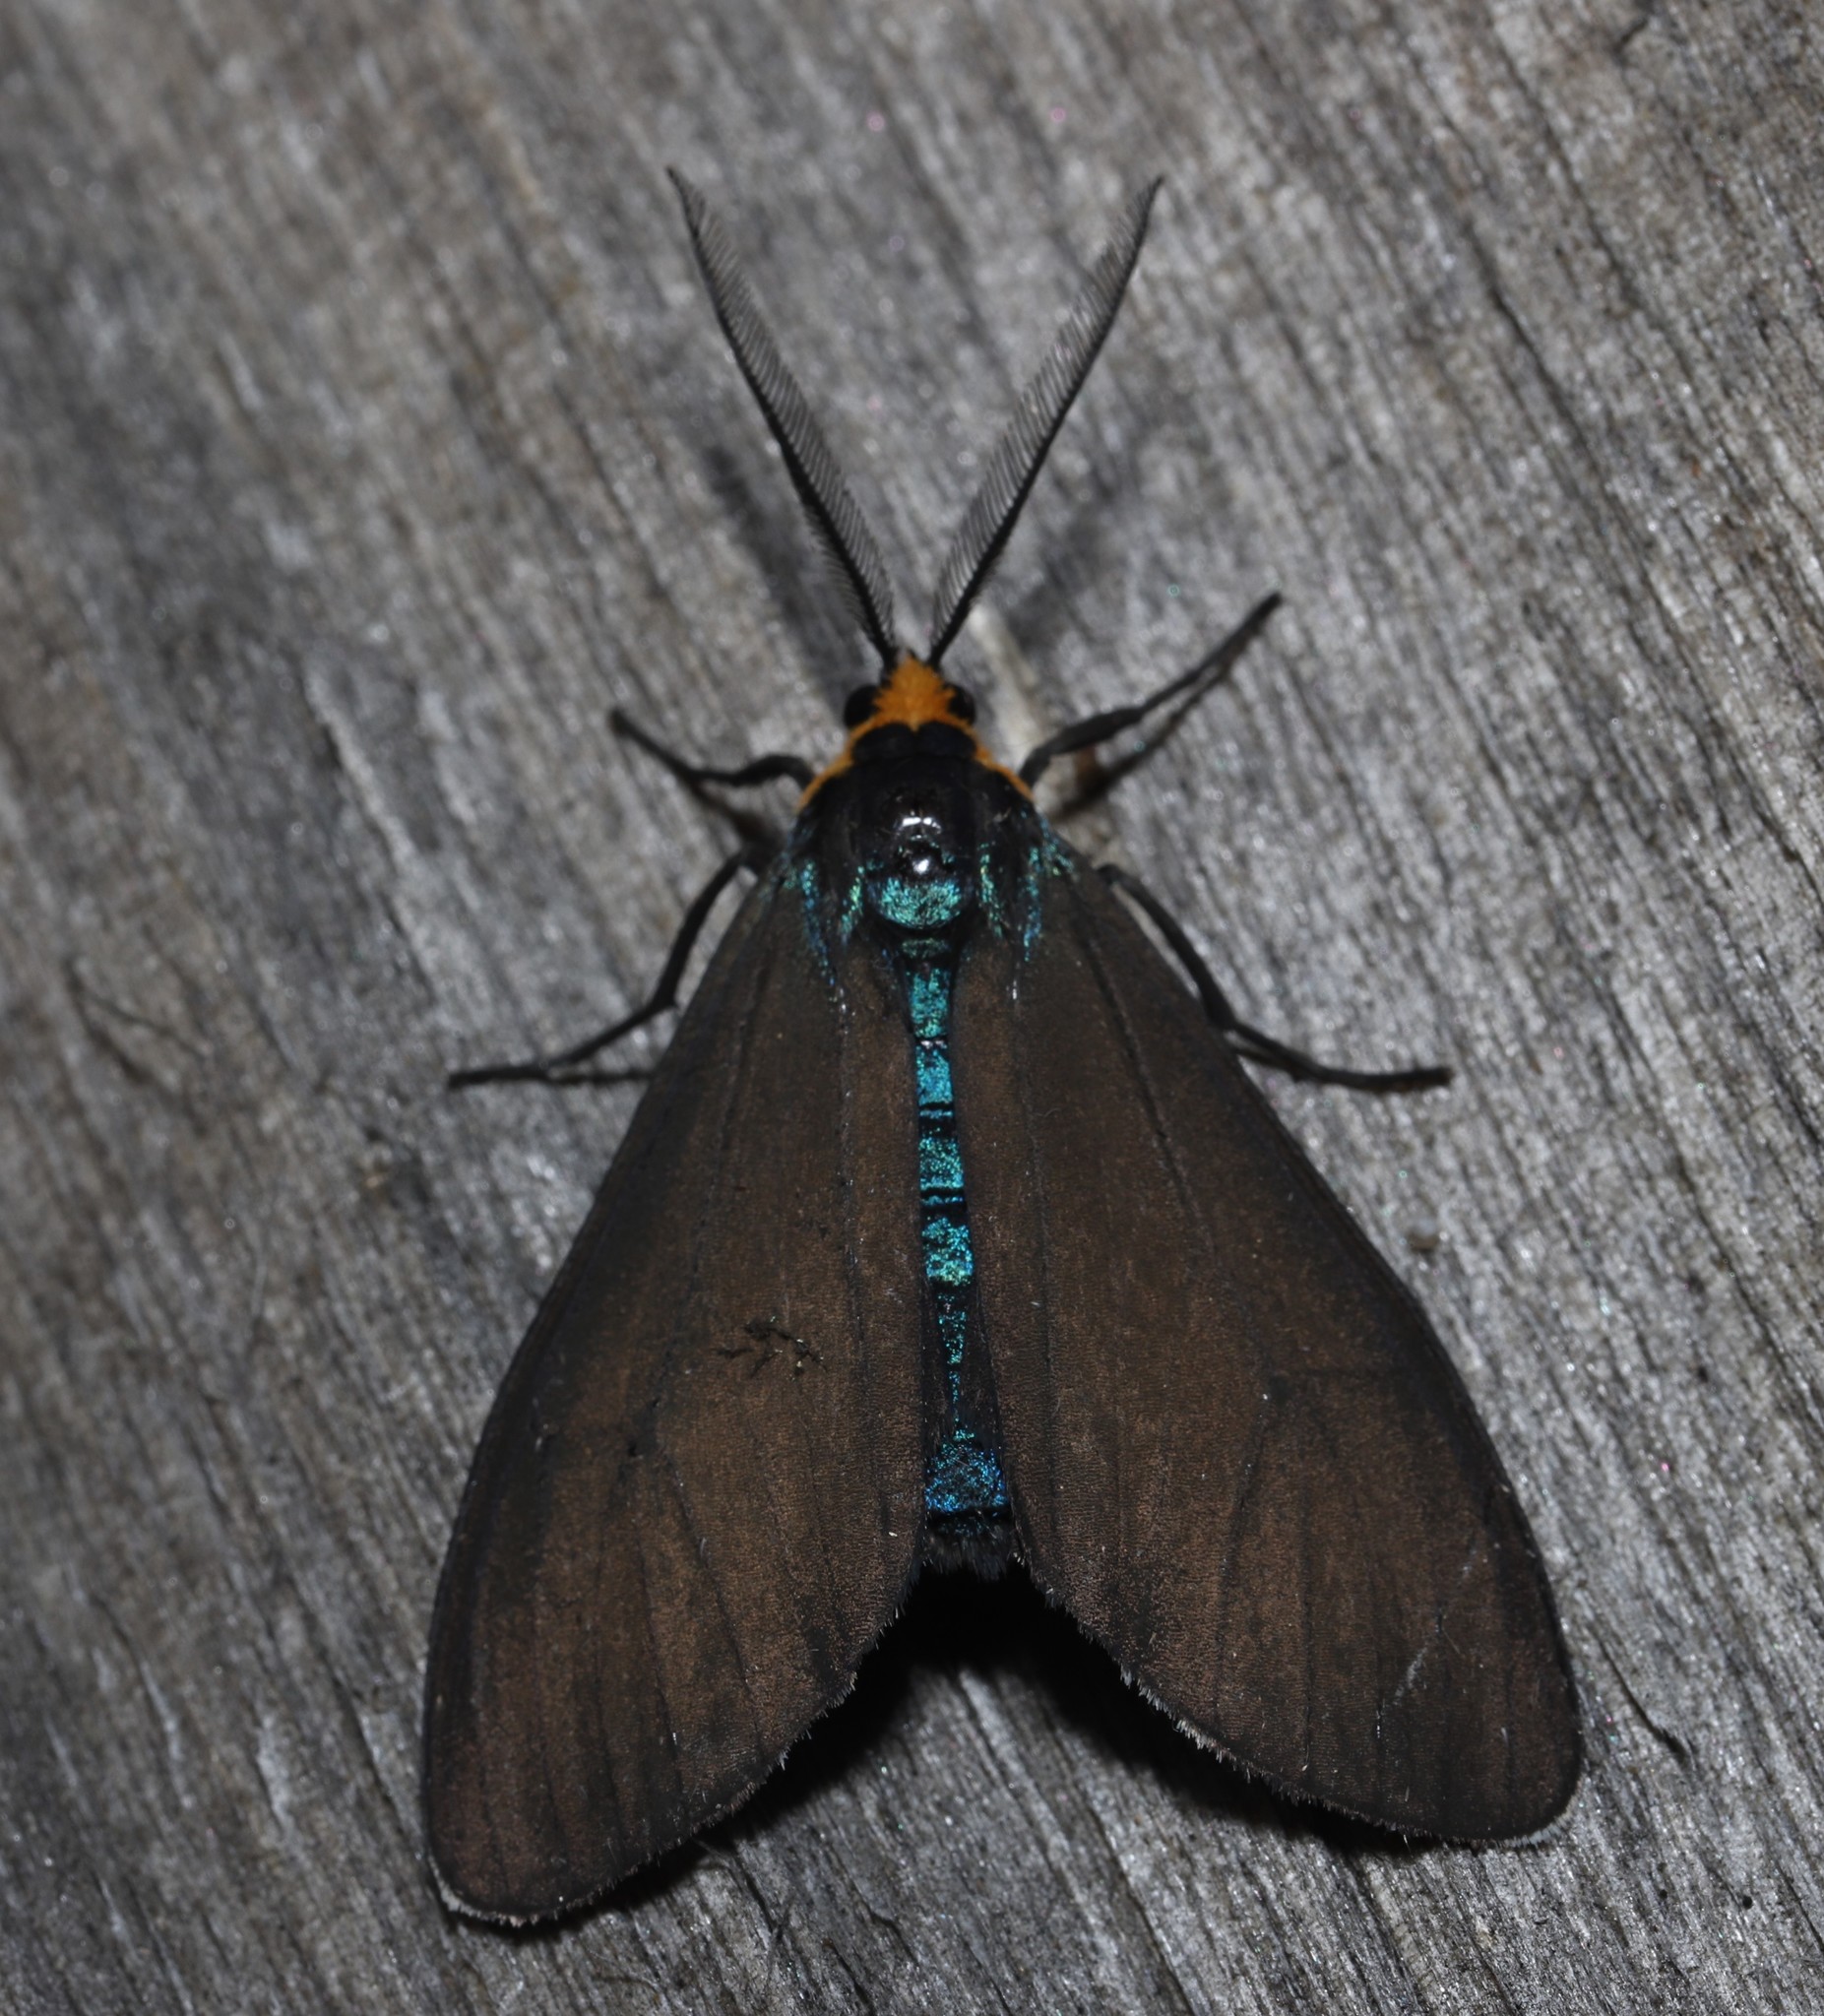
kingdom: Animalia
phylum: Arthropoda
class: Insecta
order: Lepidoptera
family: Erebidae
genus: Ctenucha
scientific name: Ctenucha virginica
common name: Virginia ctenucha moth
